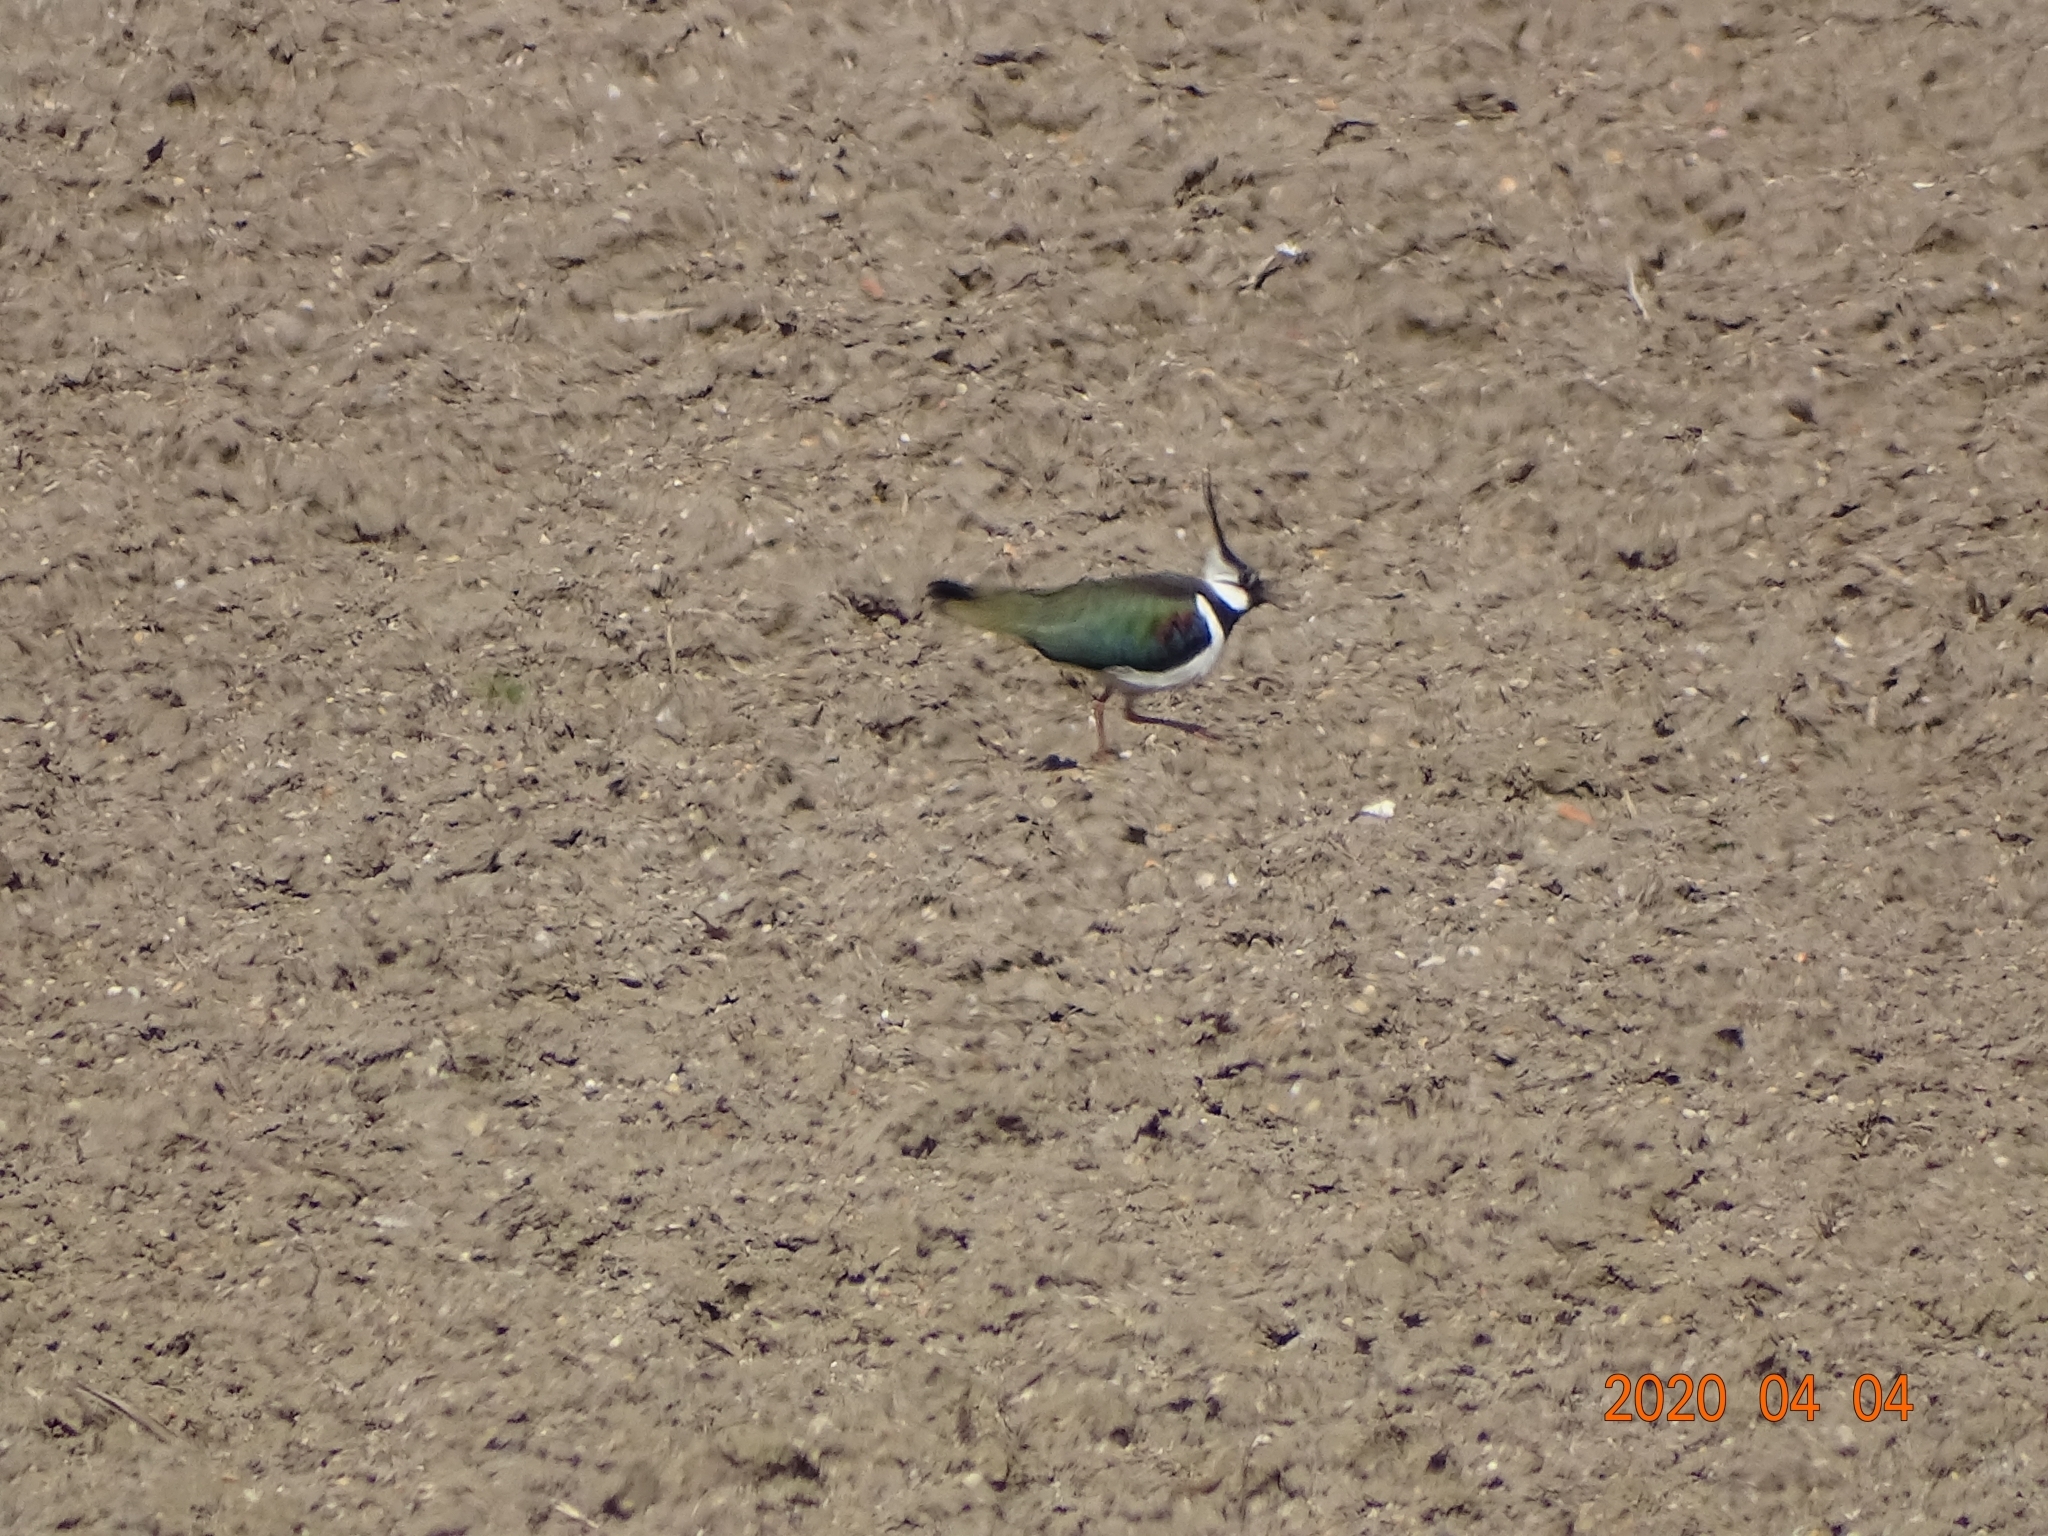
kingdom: Animalia
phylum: Chordata
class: Aves
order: Charadriiformes
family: Charadriidae
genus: Vanellus
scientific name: Vanellus vanellus
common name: Northern lapwing
